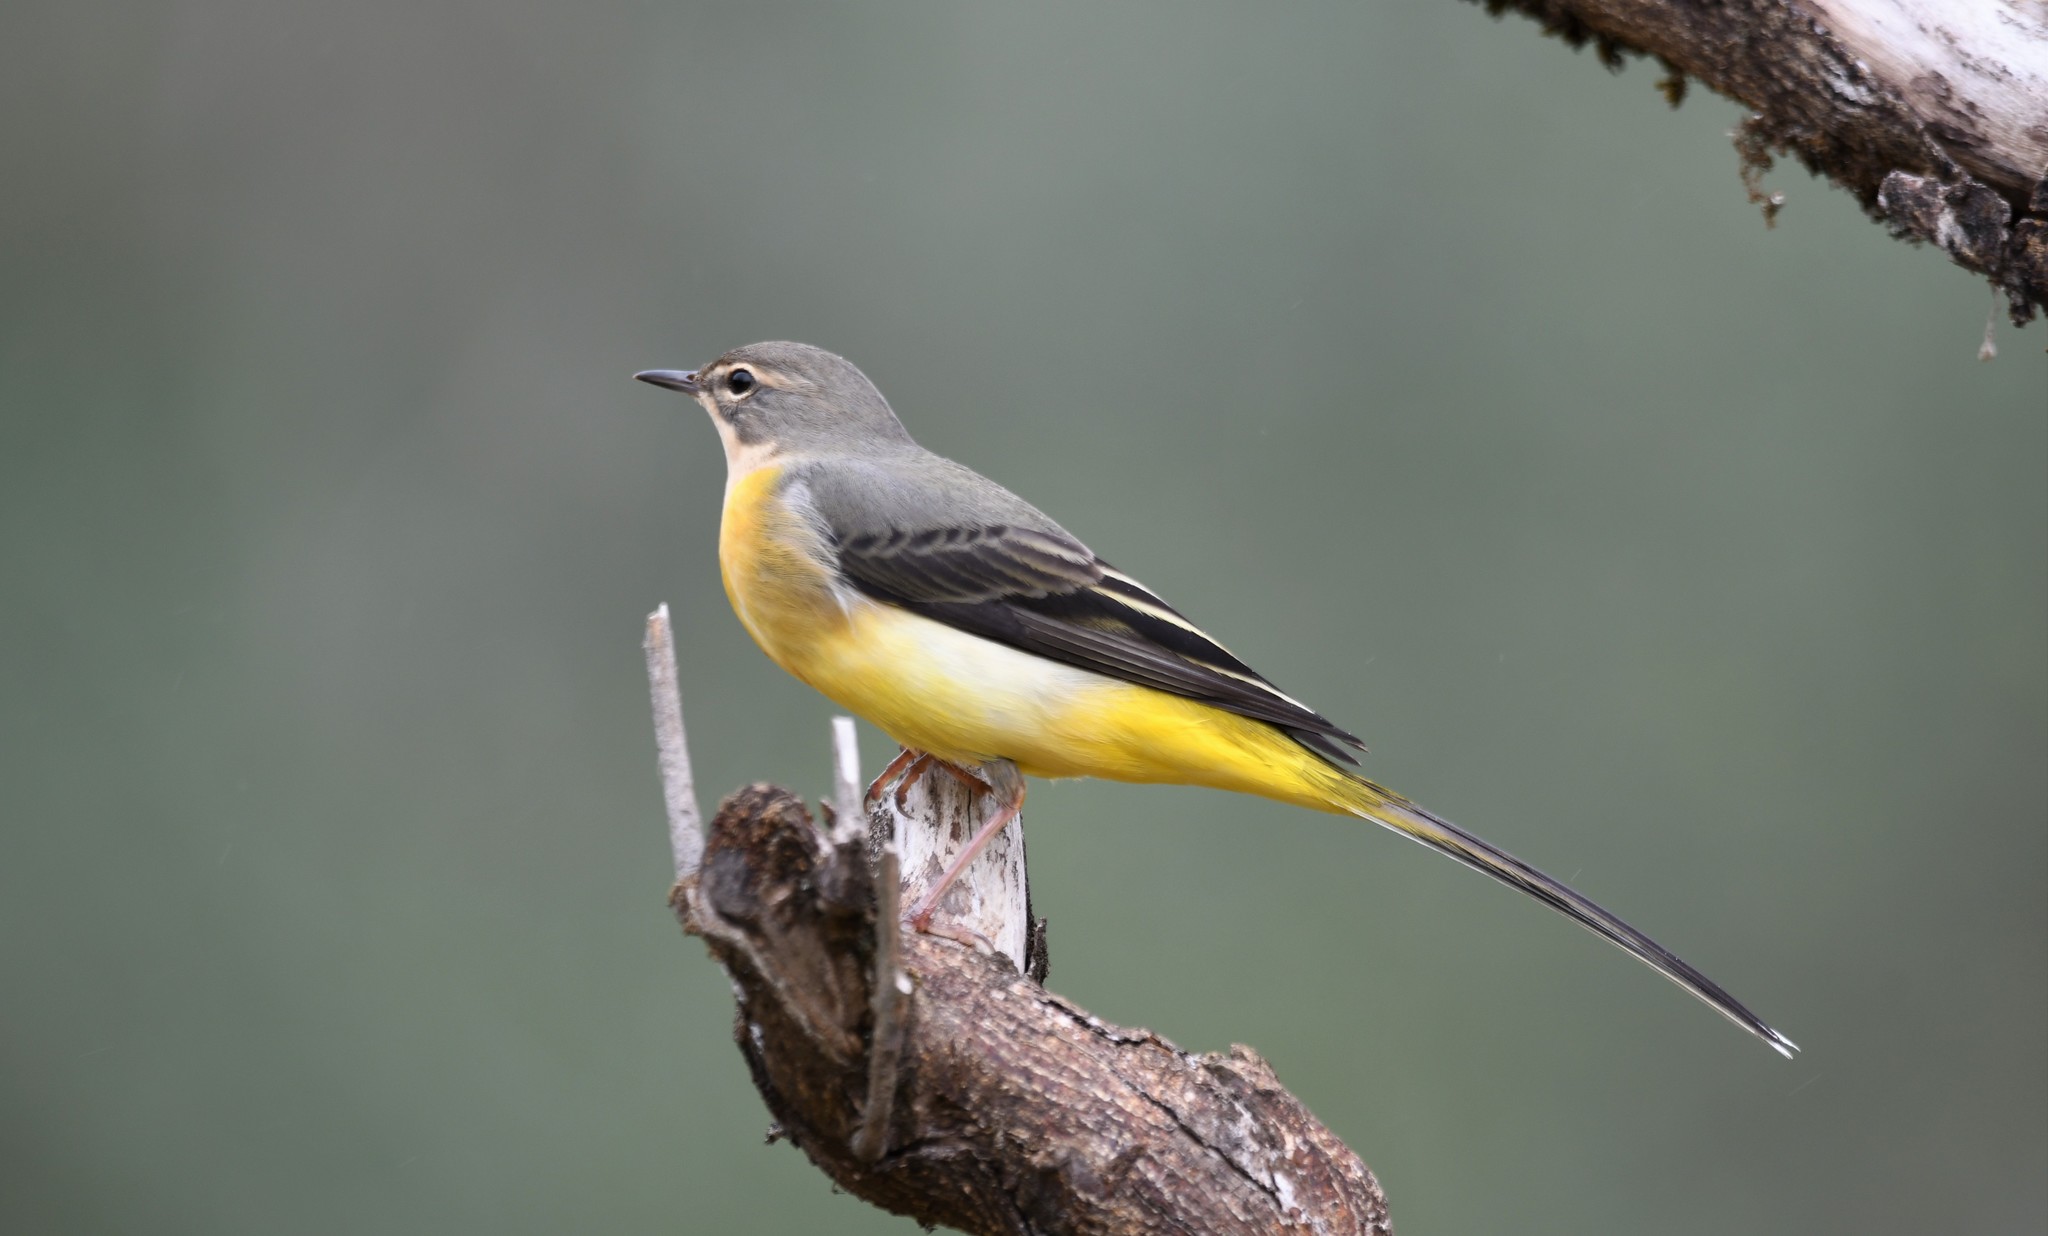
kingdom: Animalia
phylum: Chordata
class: Aves
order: Passeriformes
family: Motacillidae
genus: Motacilla
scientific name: Motacilla cinerea
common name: Grey wagtail
